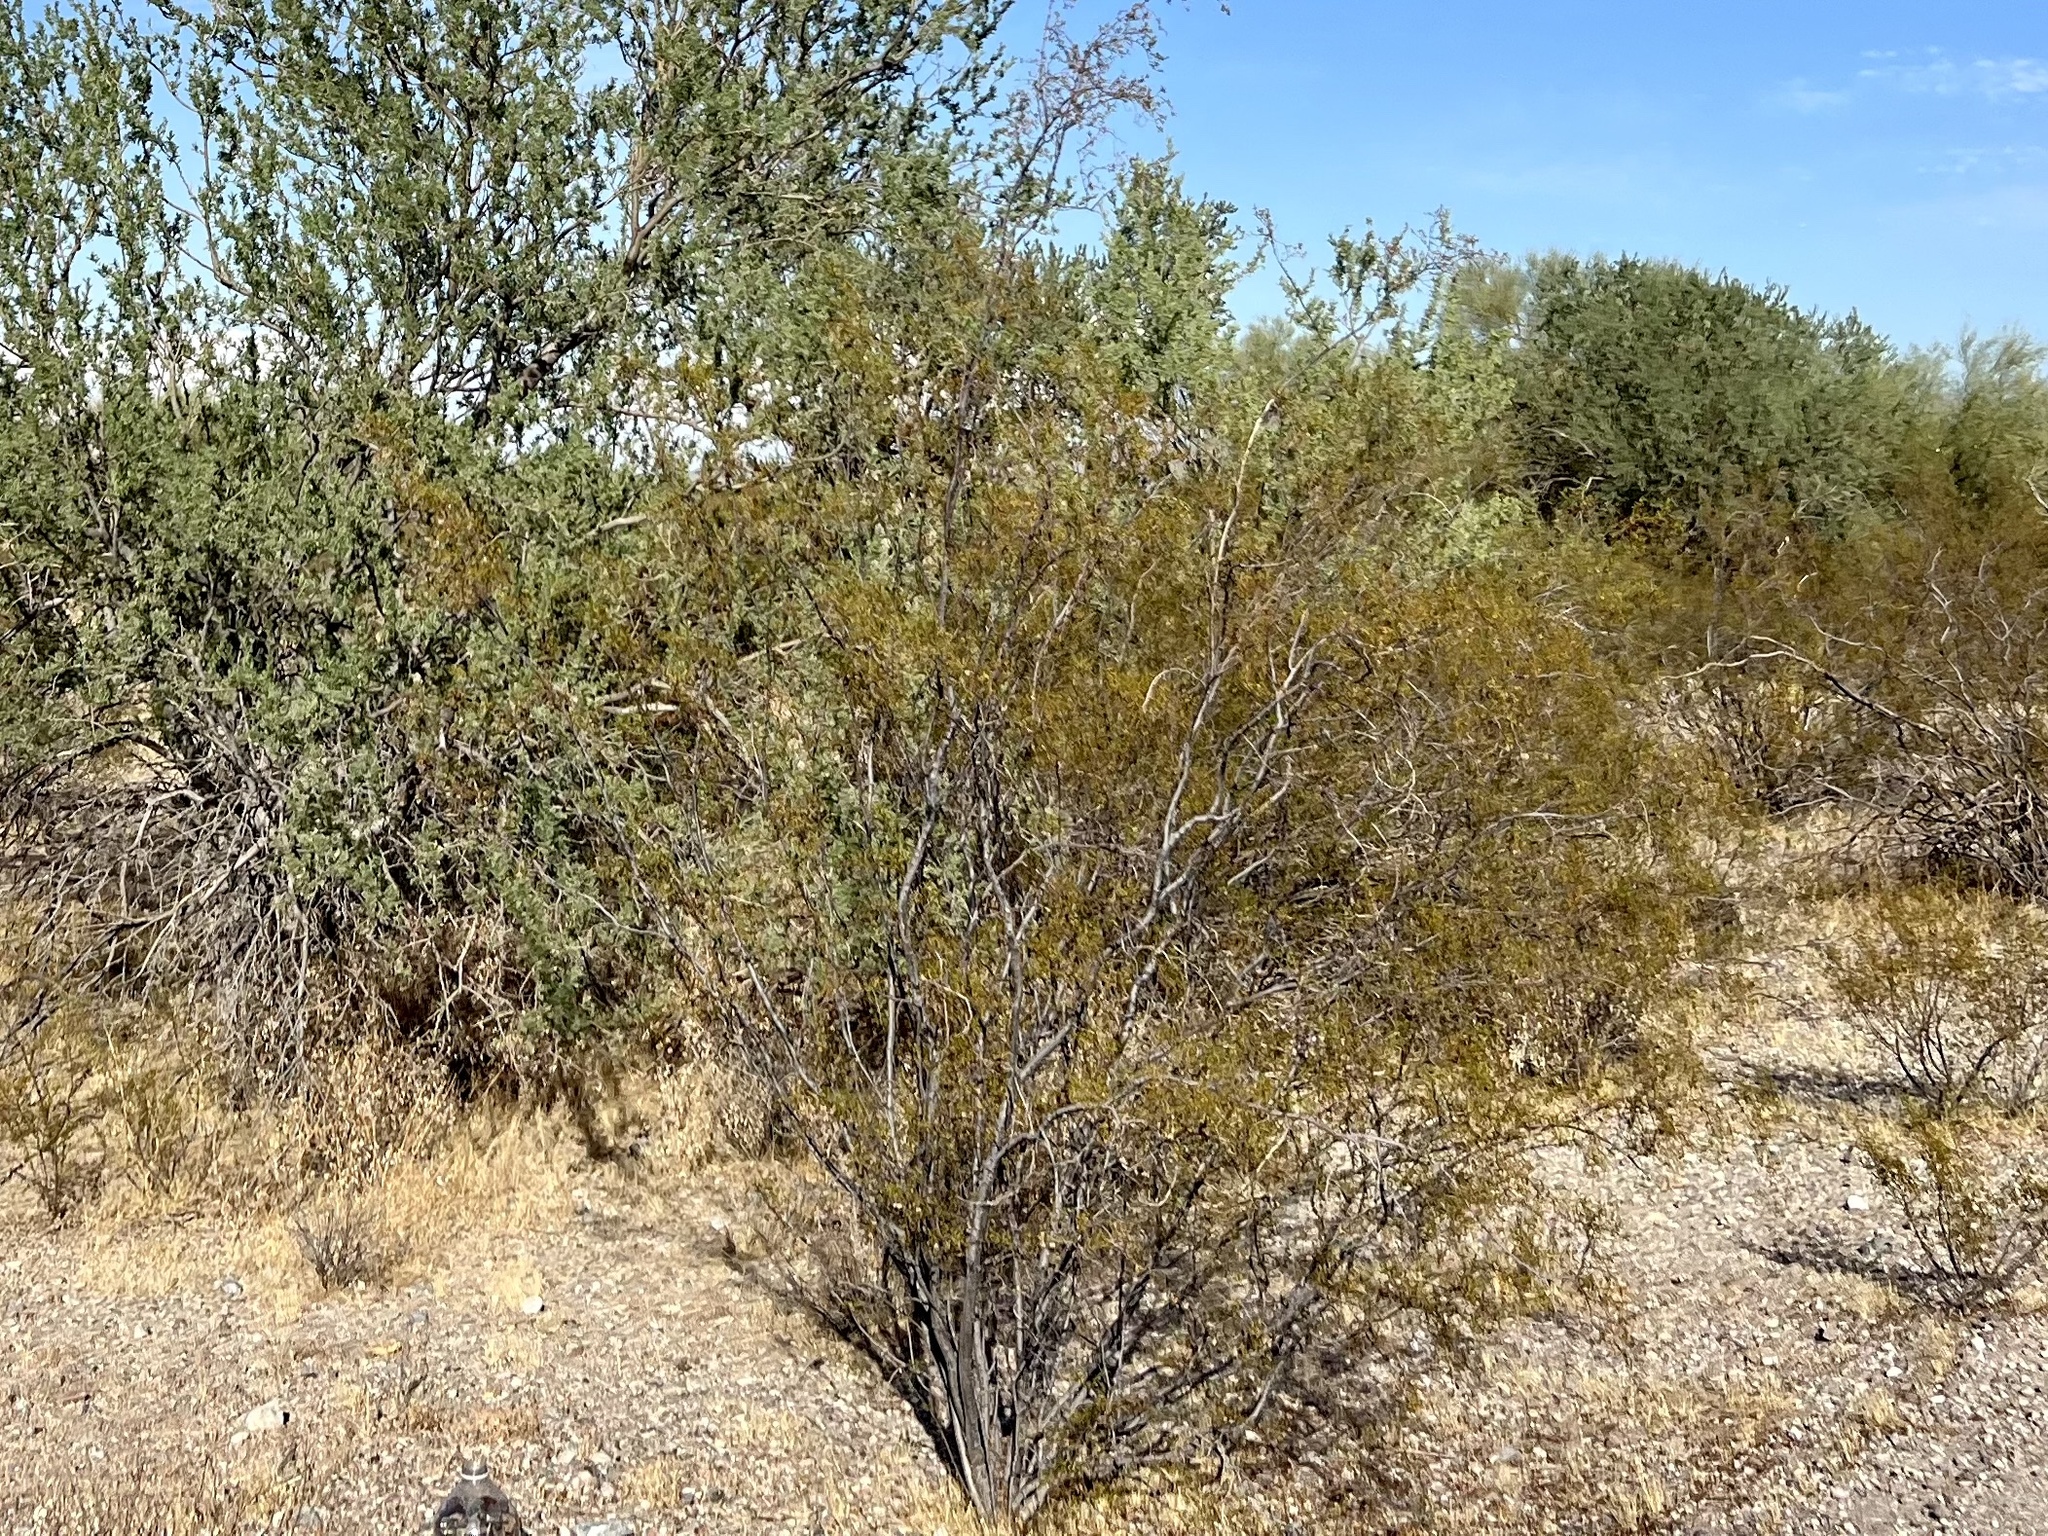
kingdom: Plantae
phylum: Tracheophyta
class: Magnoliopsida
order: Zygophyllales
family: Zygophyllaceae
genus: Larrea
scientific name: Larrea tridentata
